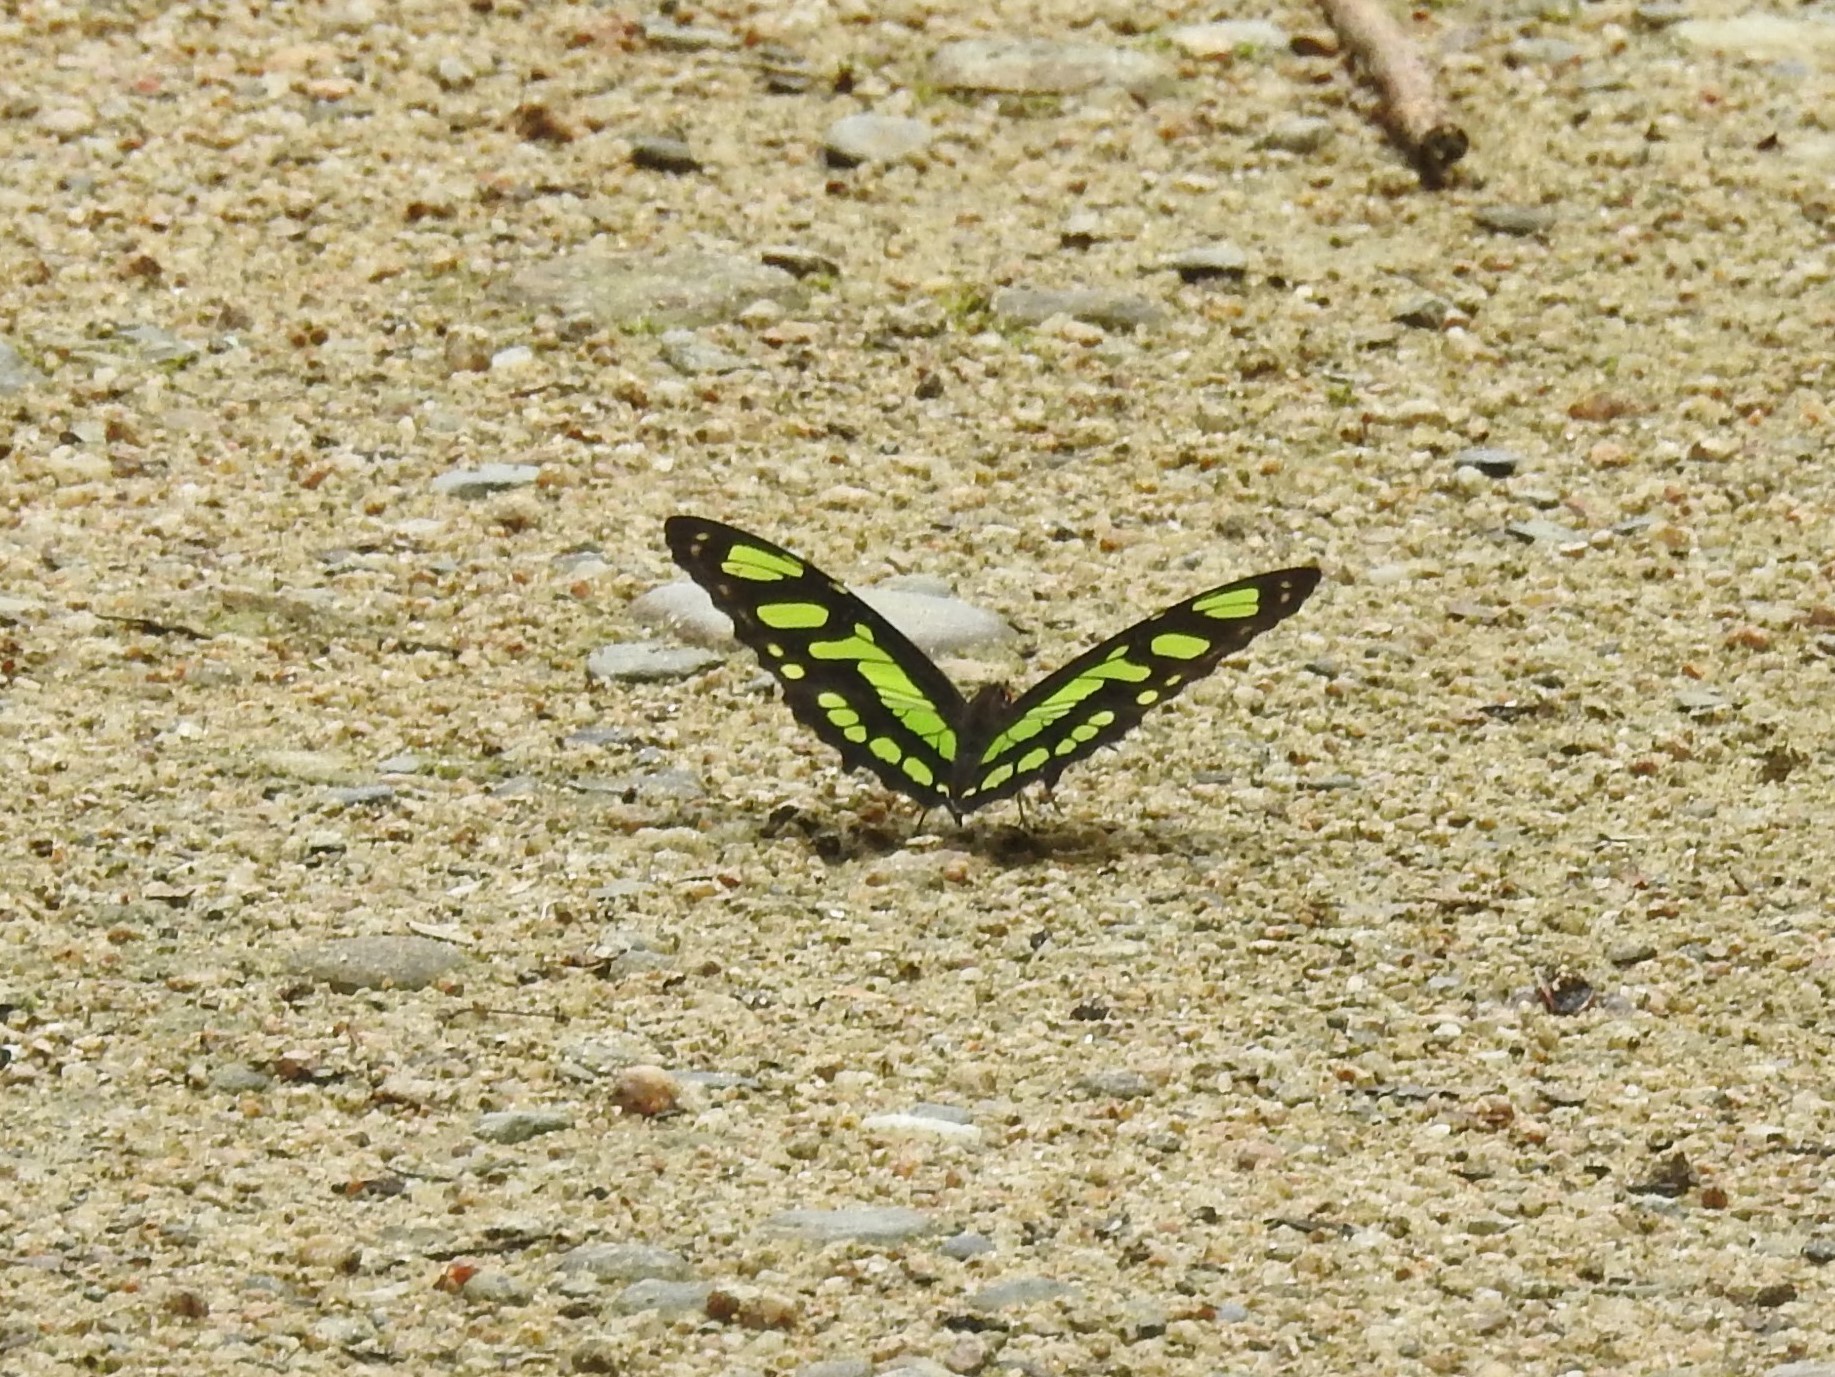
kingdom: Animalia
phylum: Arthropoda
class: Insecta
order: Lepidoptera
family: Nymphalidae
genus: Siproeta
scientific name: Siproeta stelenes
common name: Malachite
